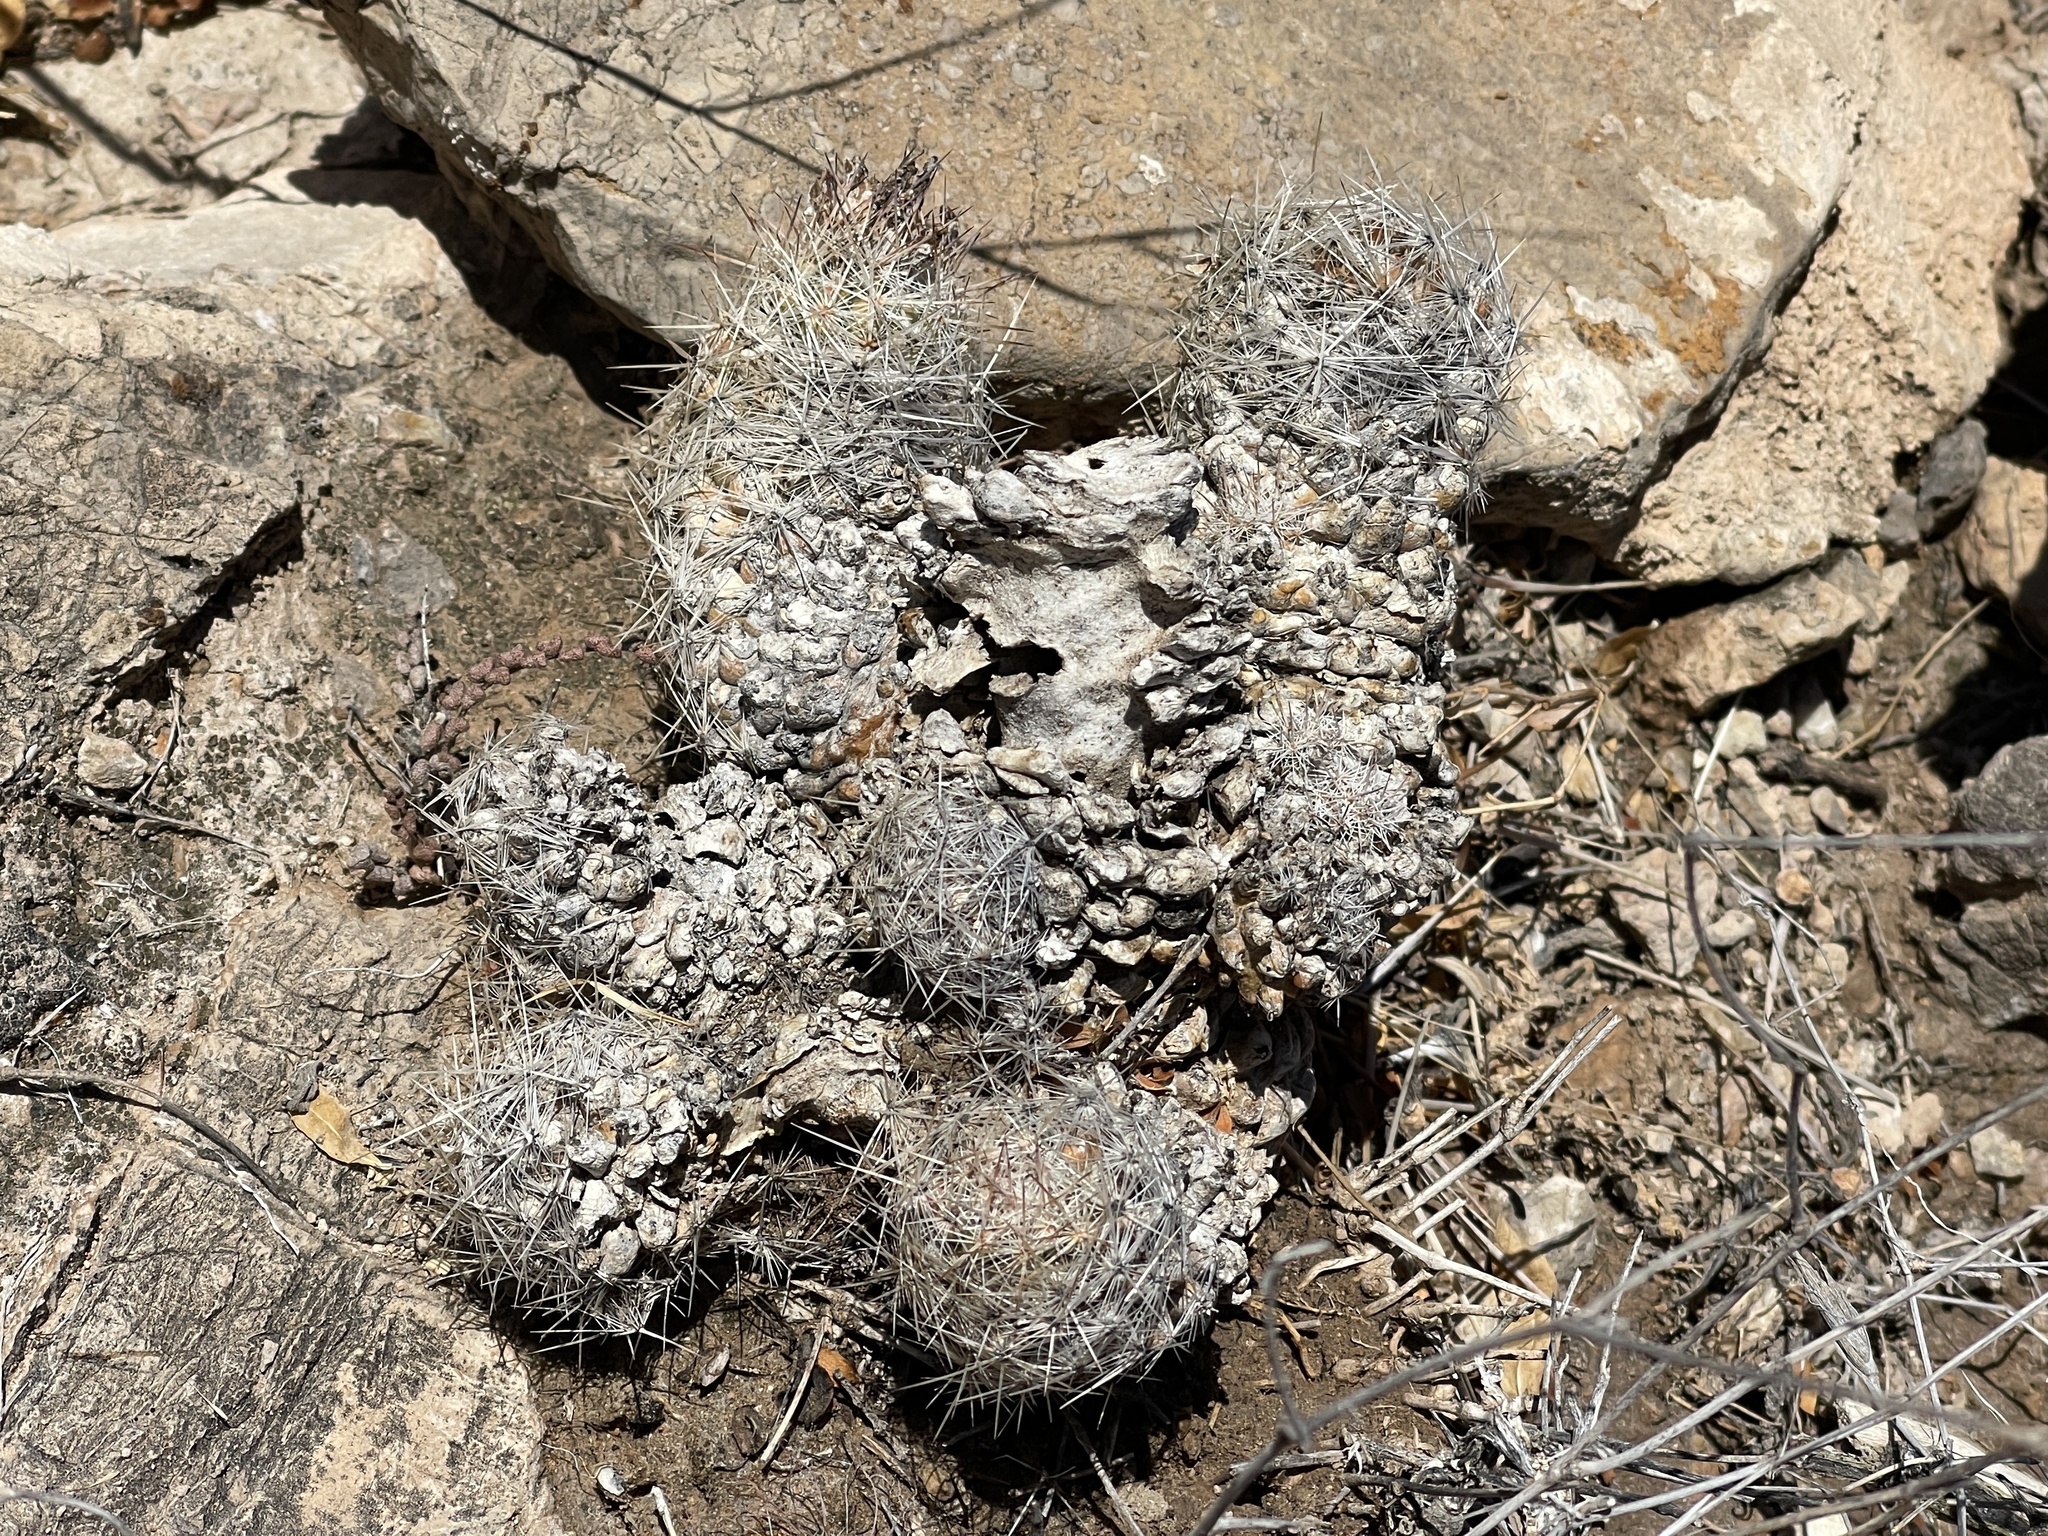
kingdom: Plantae
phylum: Tracheophyta
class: Magnoliopsida
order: Caryophyllales
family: Cactaceae
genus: Pelecyphora
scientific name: Pelecyphora tuberculosa
